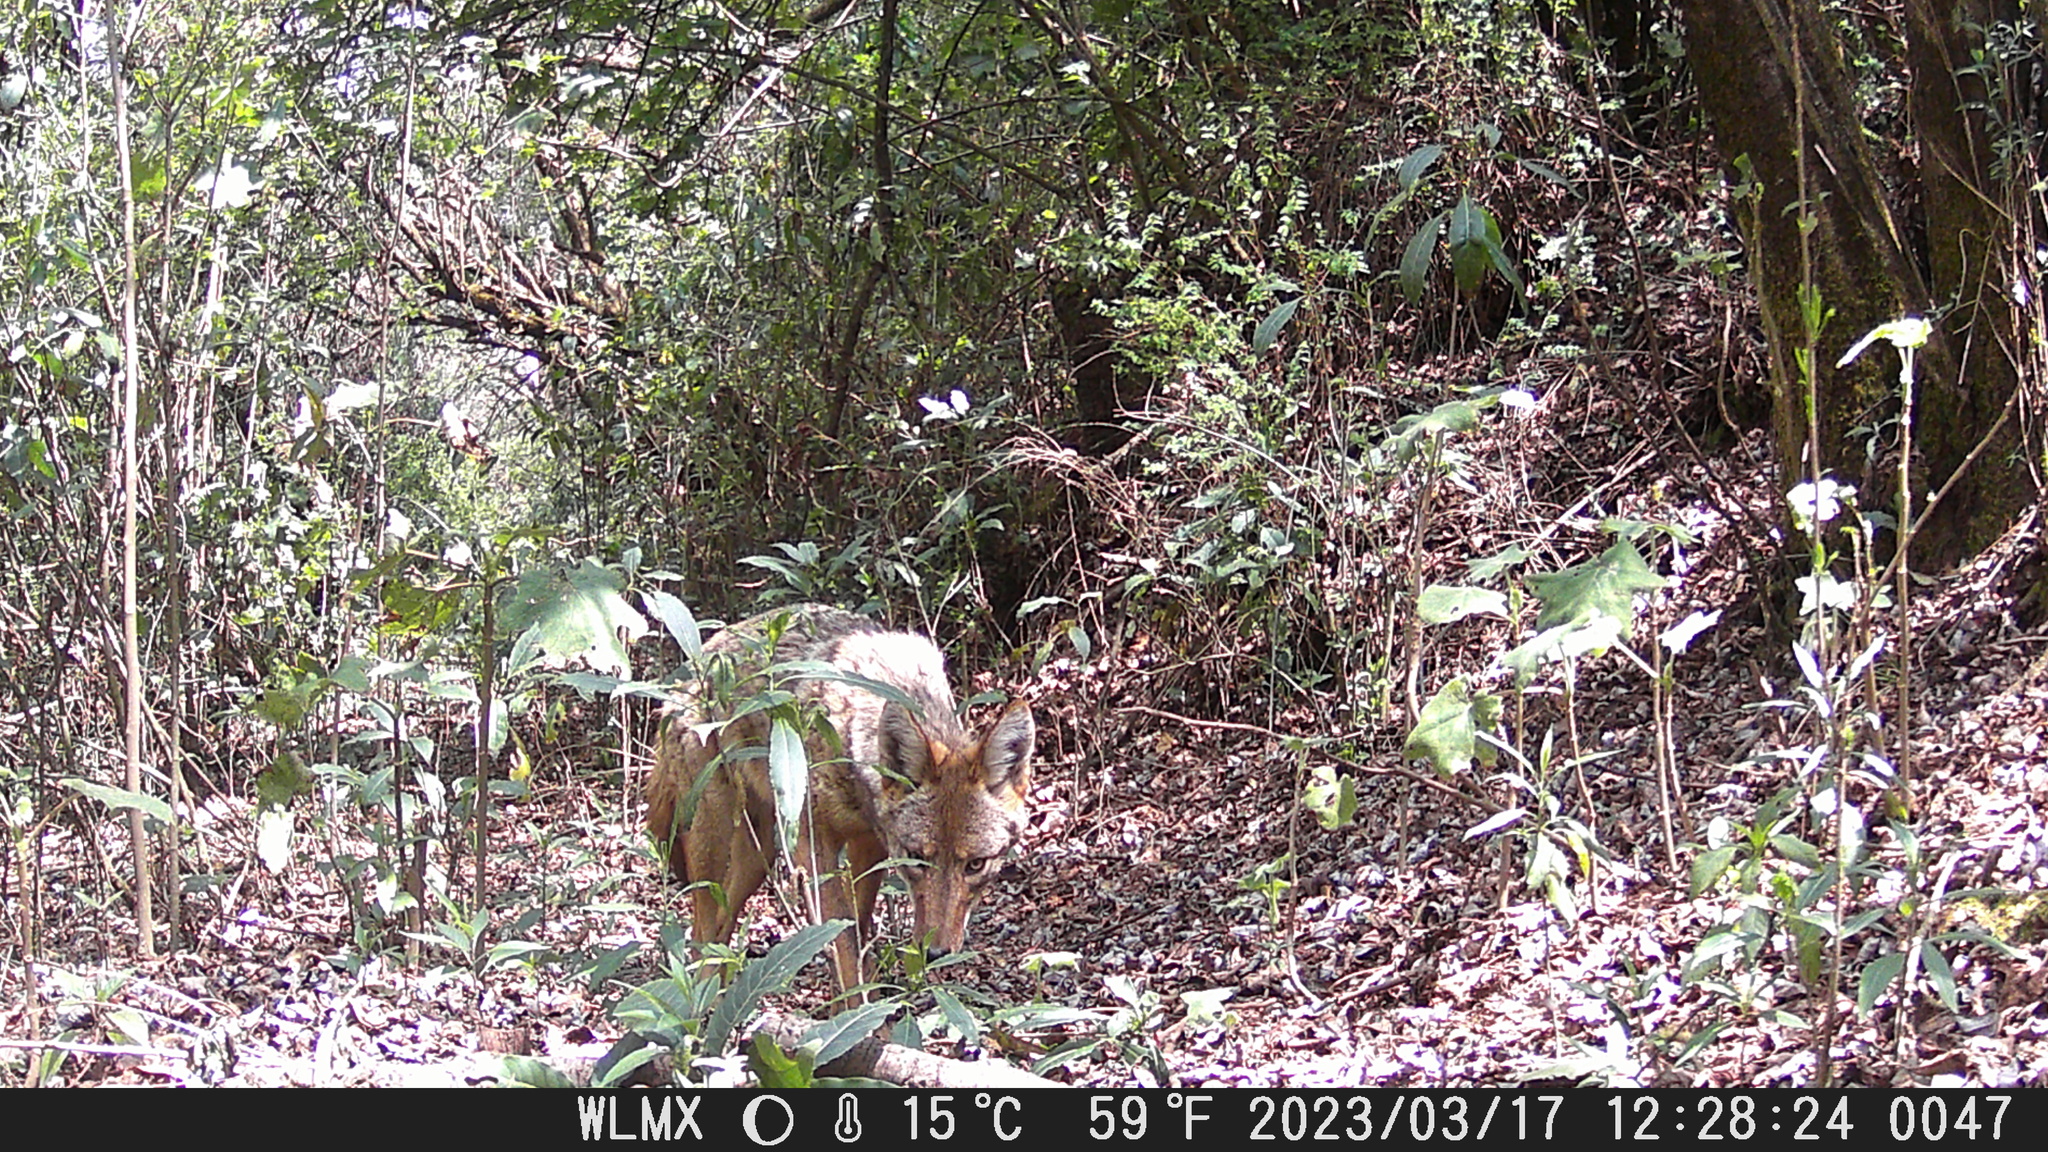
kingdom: Animalia
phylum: Chordata
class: Mammalia
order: Carnivora
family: Canidae
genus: Canis
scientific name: Canis latrans
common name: Coyote
